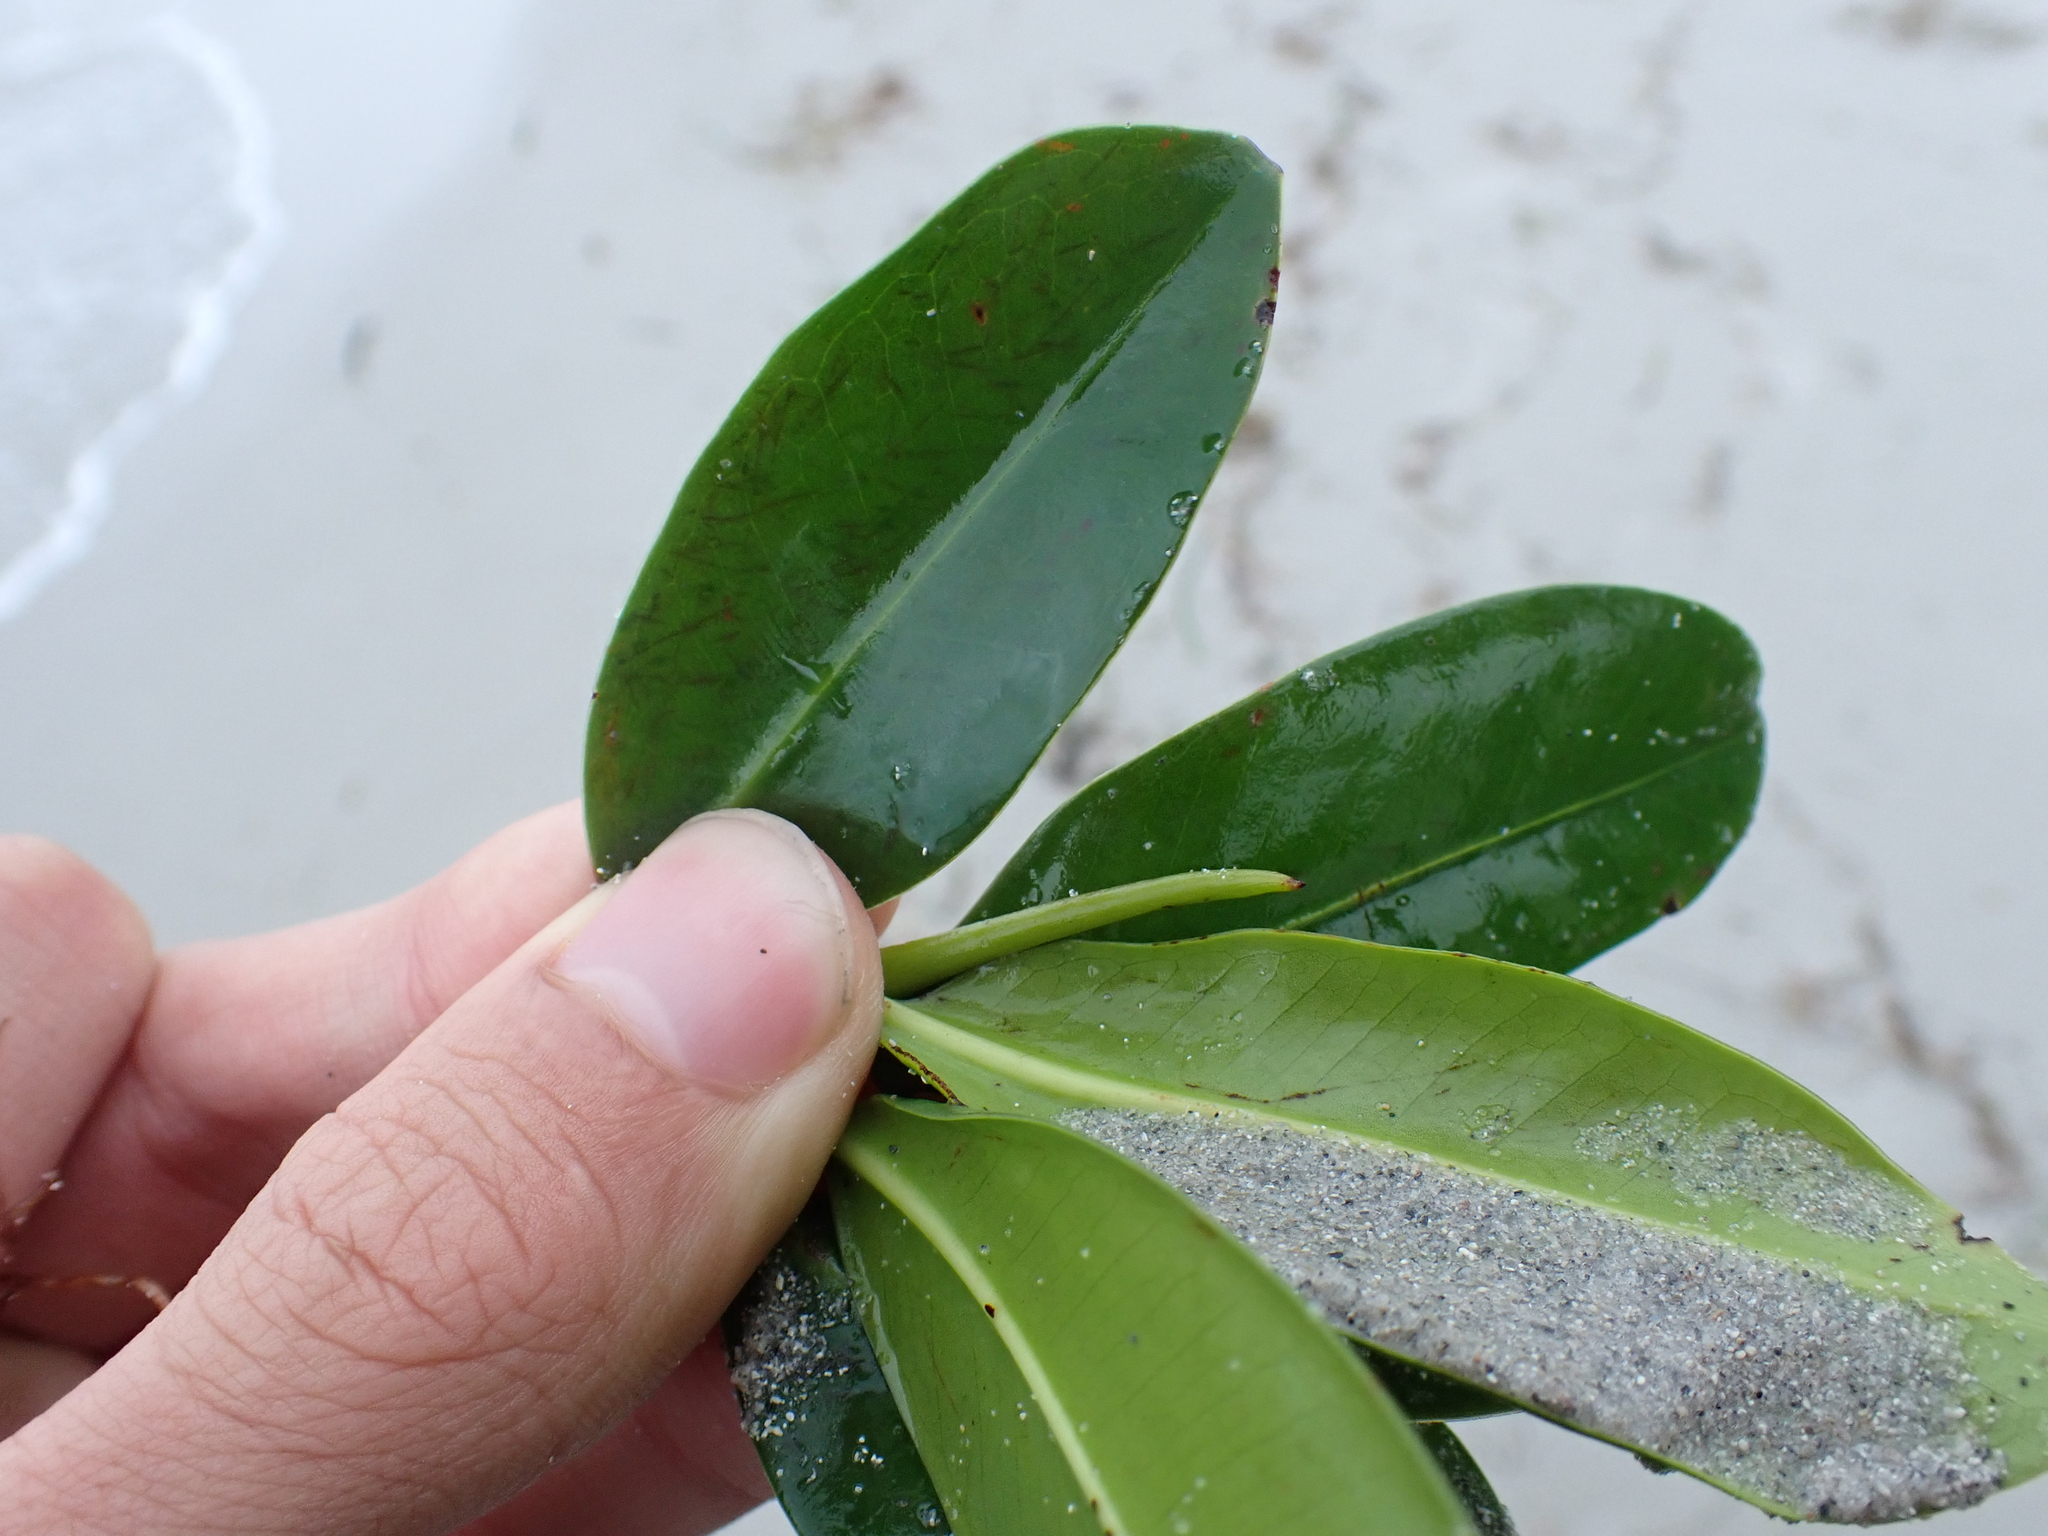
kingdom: Plantae
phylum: Tracheophyta
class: Magnoliopsida
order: Malpighiales
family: Rhizophoraceae
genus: Rhizophora
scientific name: Rhizophora mangle
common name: Red mangrove
